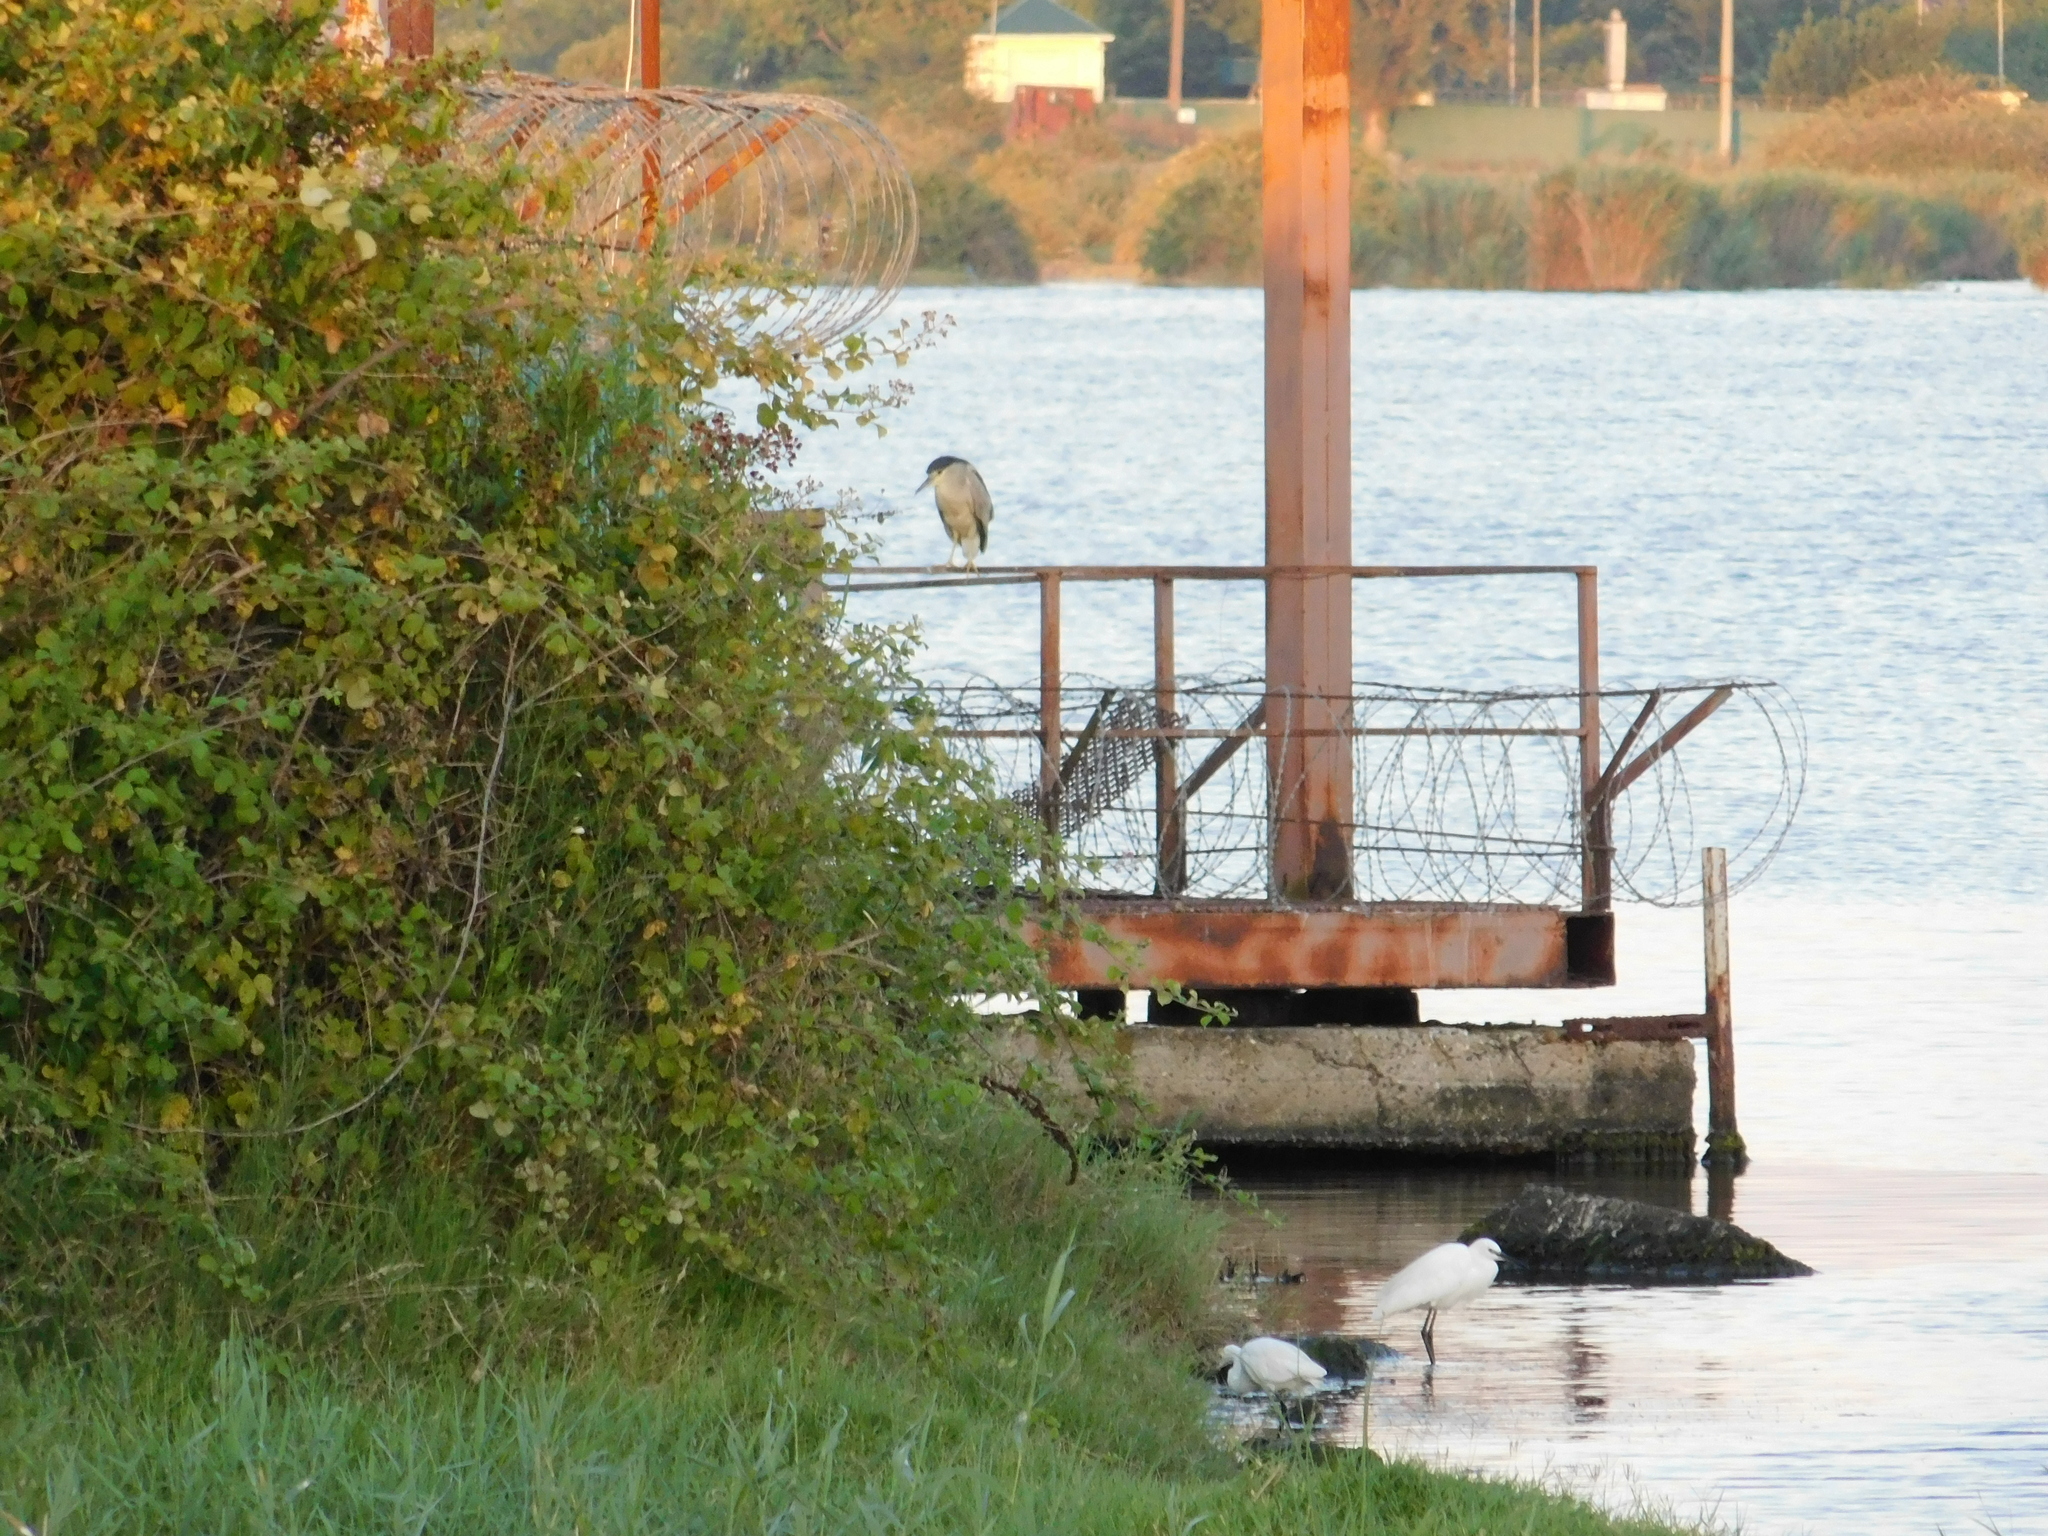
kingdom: Animalia
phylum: Chordata
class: Aves
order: Pelecaniformes
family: Ardeidae
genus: Egretta
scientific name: Egretta garzetta
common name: Little egret
